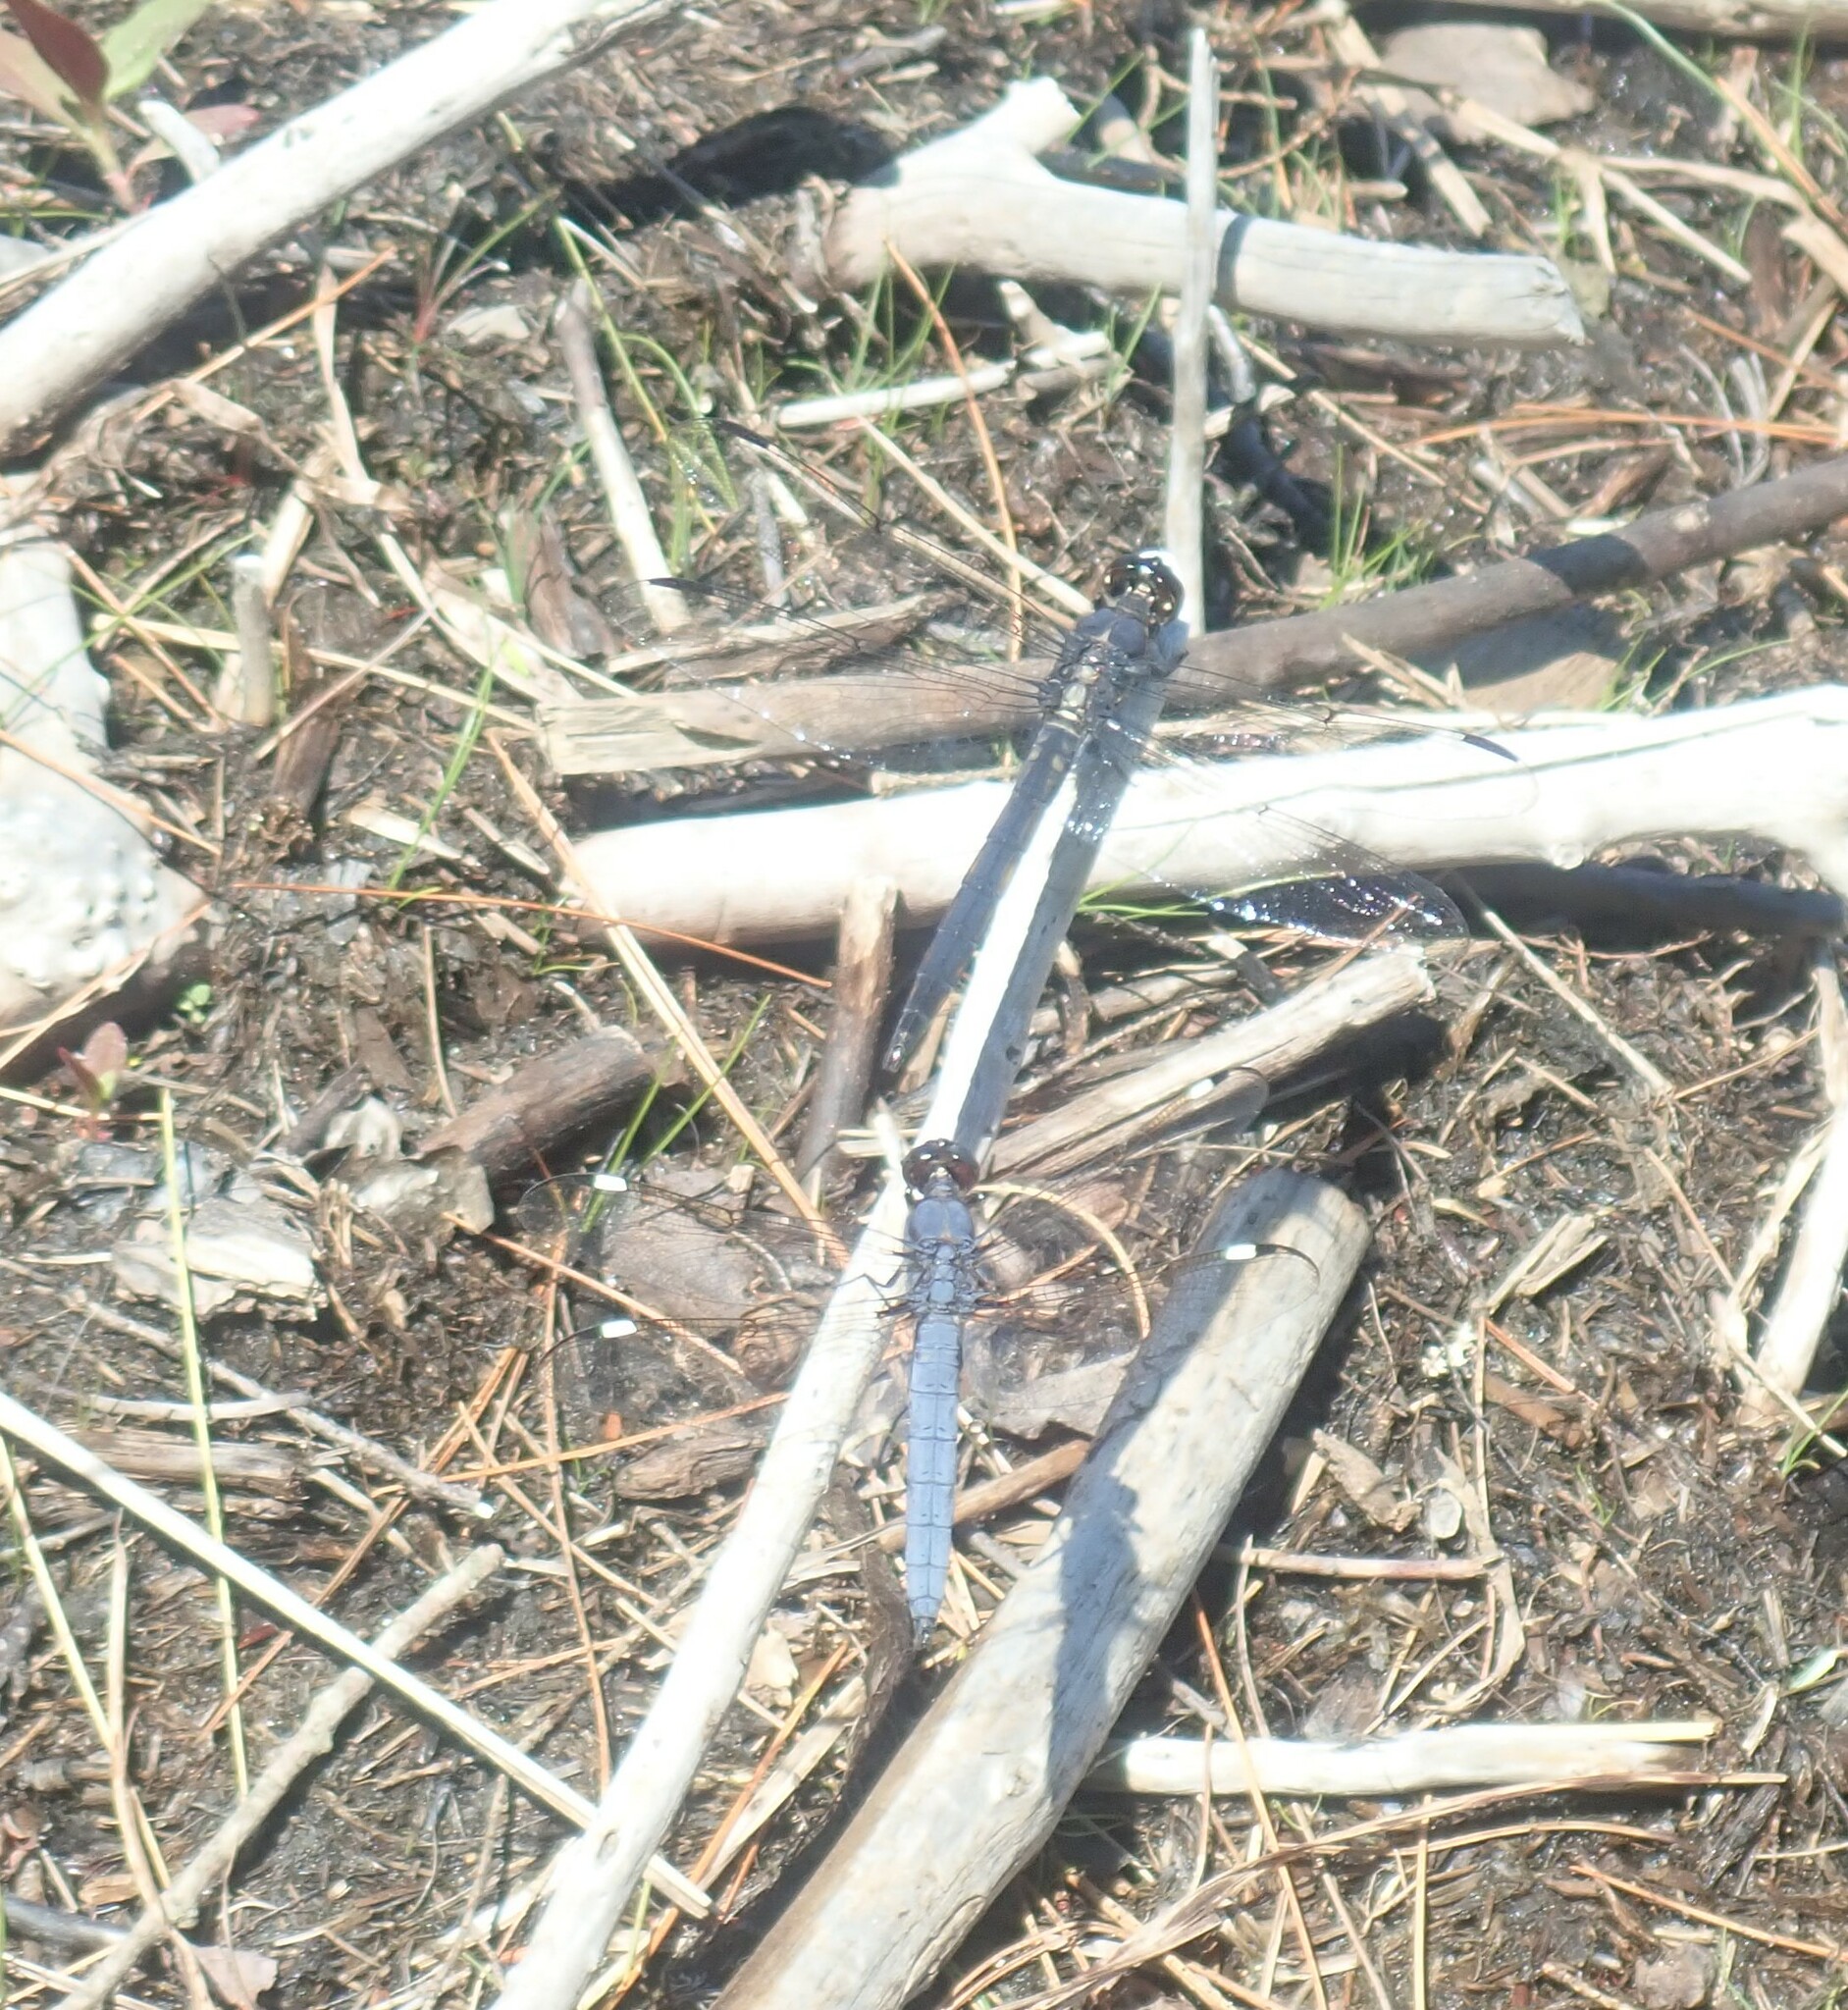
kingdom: Animalia
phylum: Arthropoda
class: Insecta
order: Odonata
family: Libellulidae
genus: Libellula
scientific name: Libellula incesta
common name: Slaty skimmer
